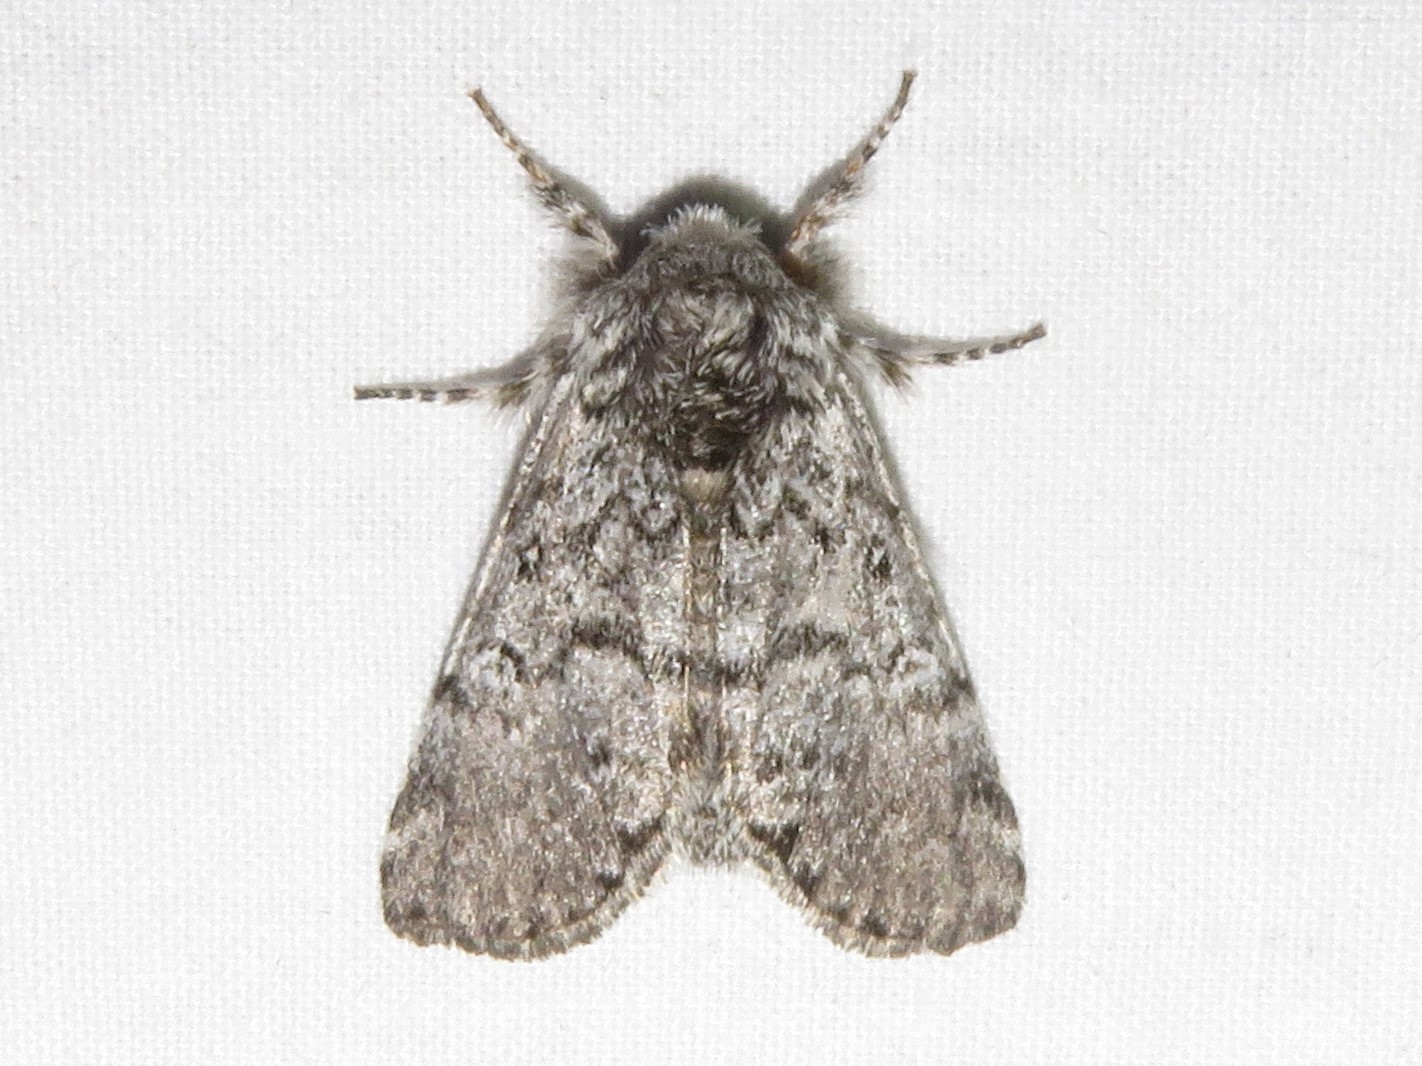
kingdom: Animalia
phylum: Arthropoda
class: Insecta
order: Lepidoptera
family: Noctuidae
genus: Colocasia
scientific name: Colocasia propinquilinea
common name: Close-banded demas
